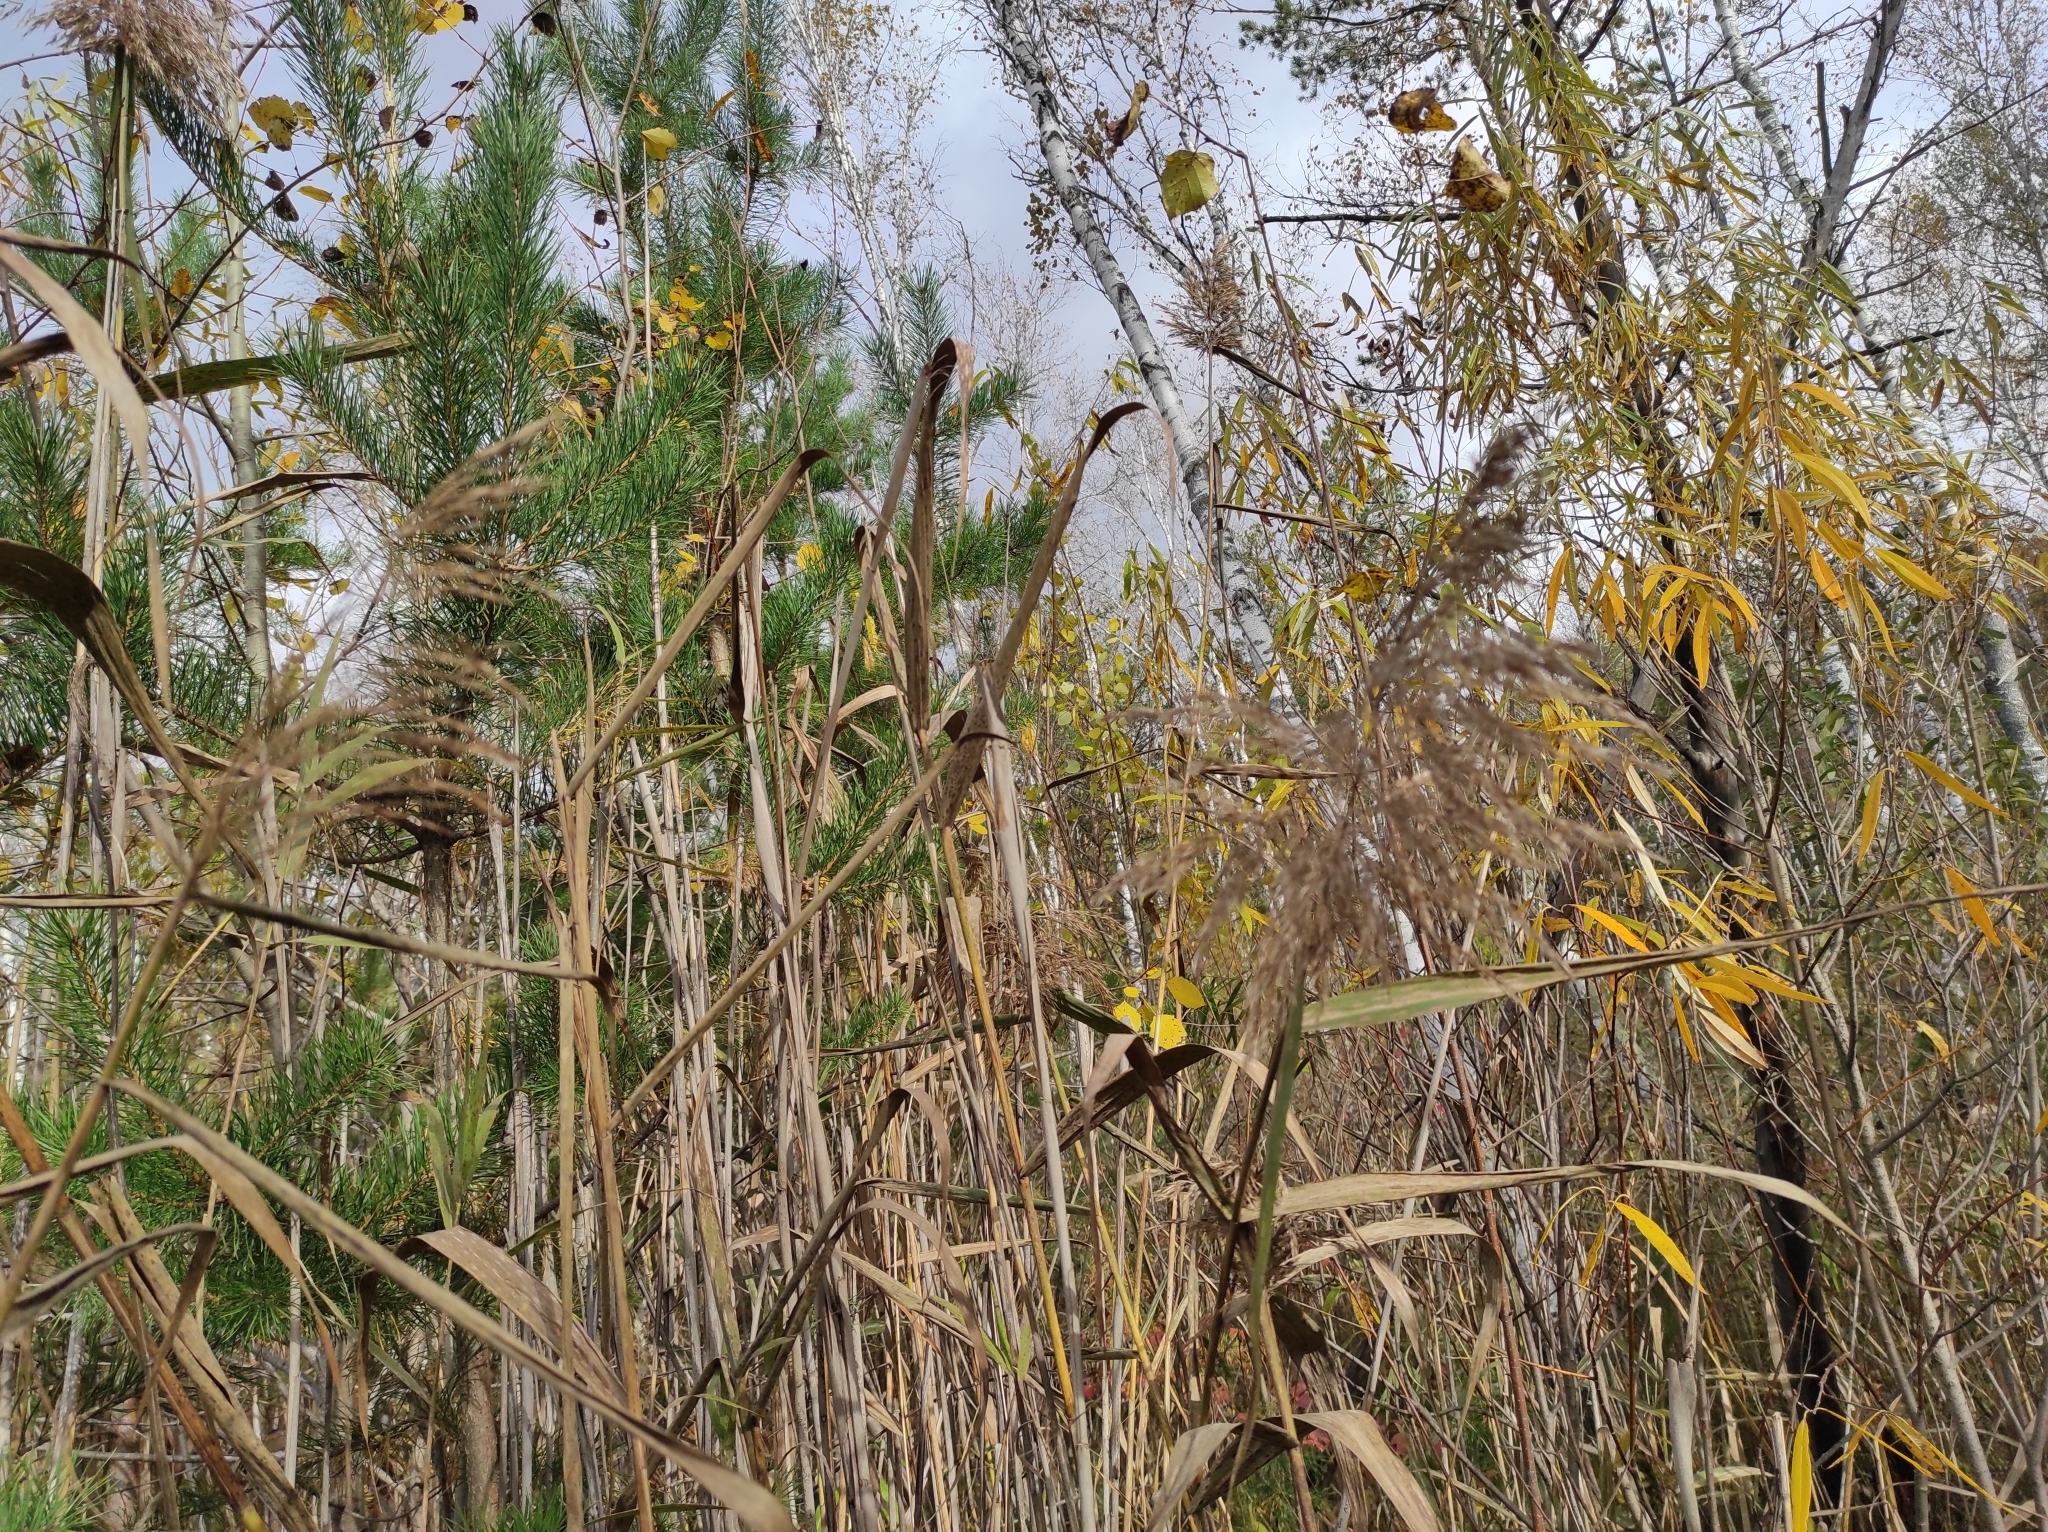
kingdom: Plantae
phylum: Tracheophyta
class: Liliopsida
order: Poales
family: Poaceae
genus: Phragmites
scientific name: Phragmites australis
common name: Common reed
